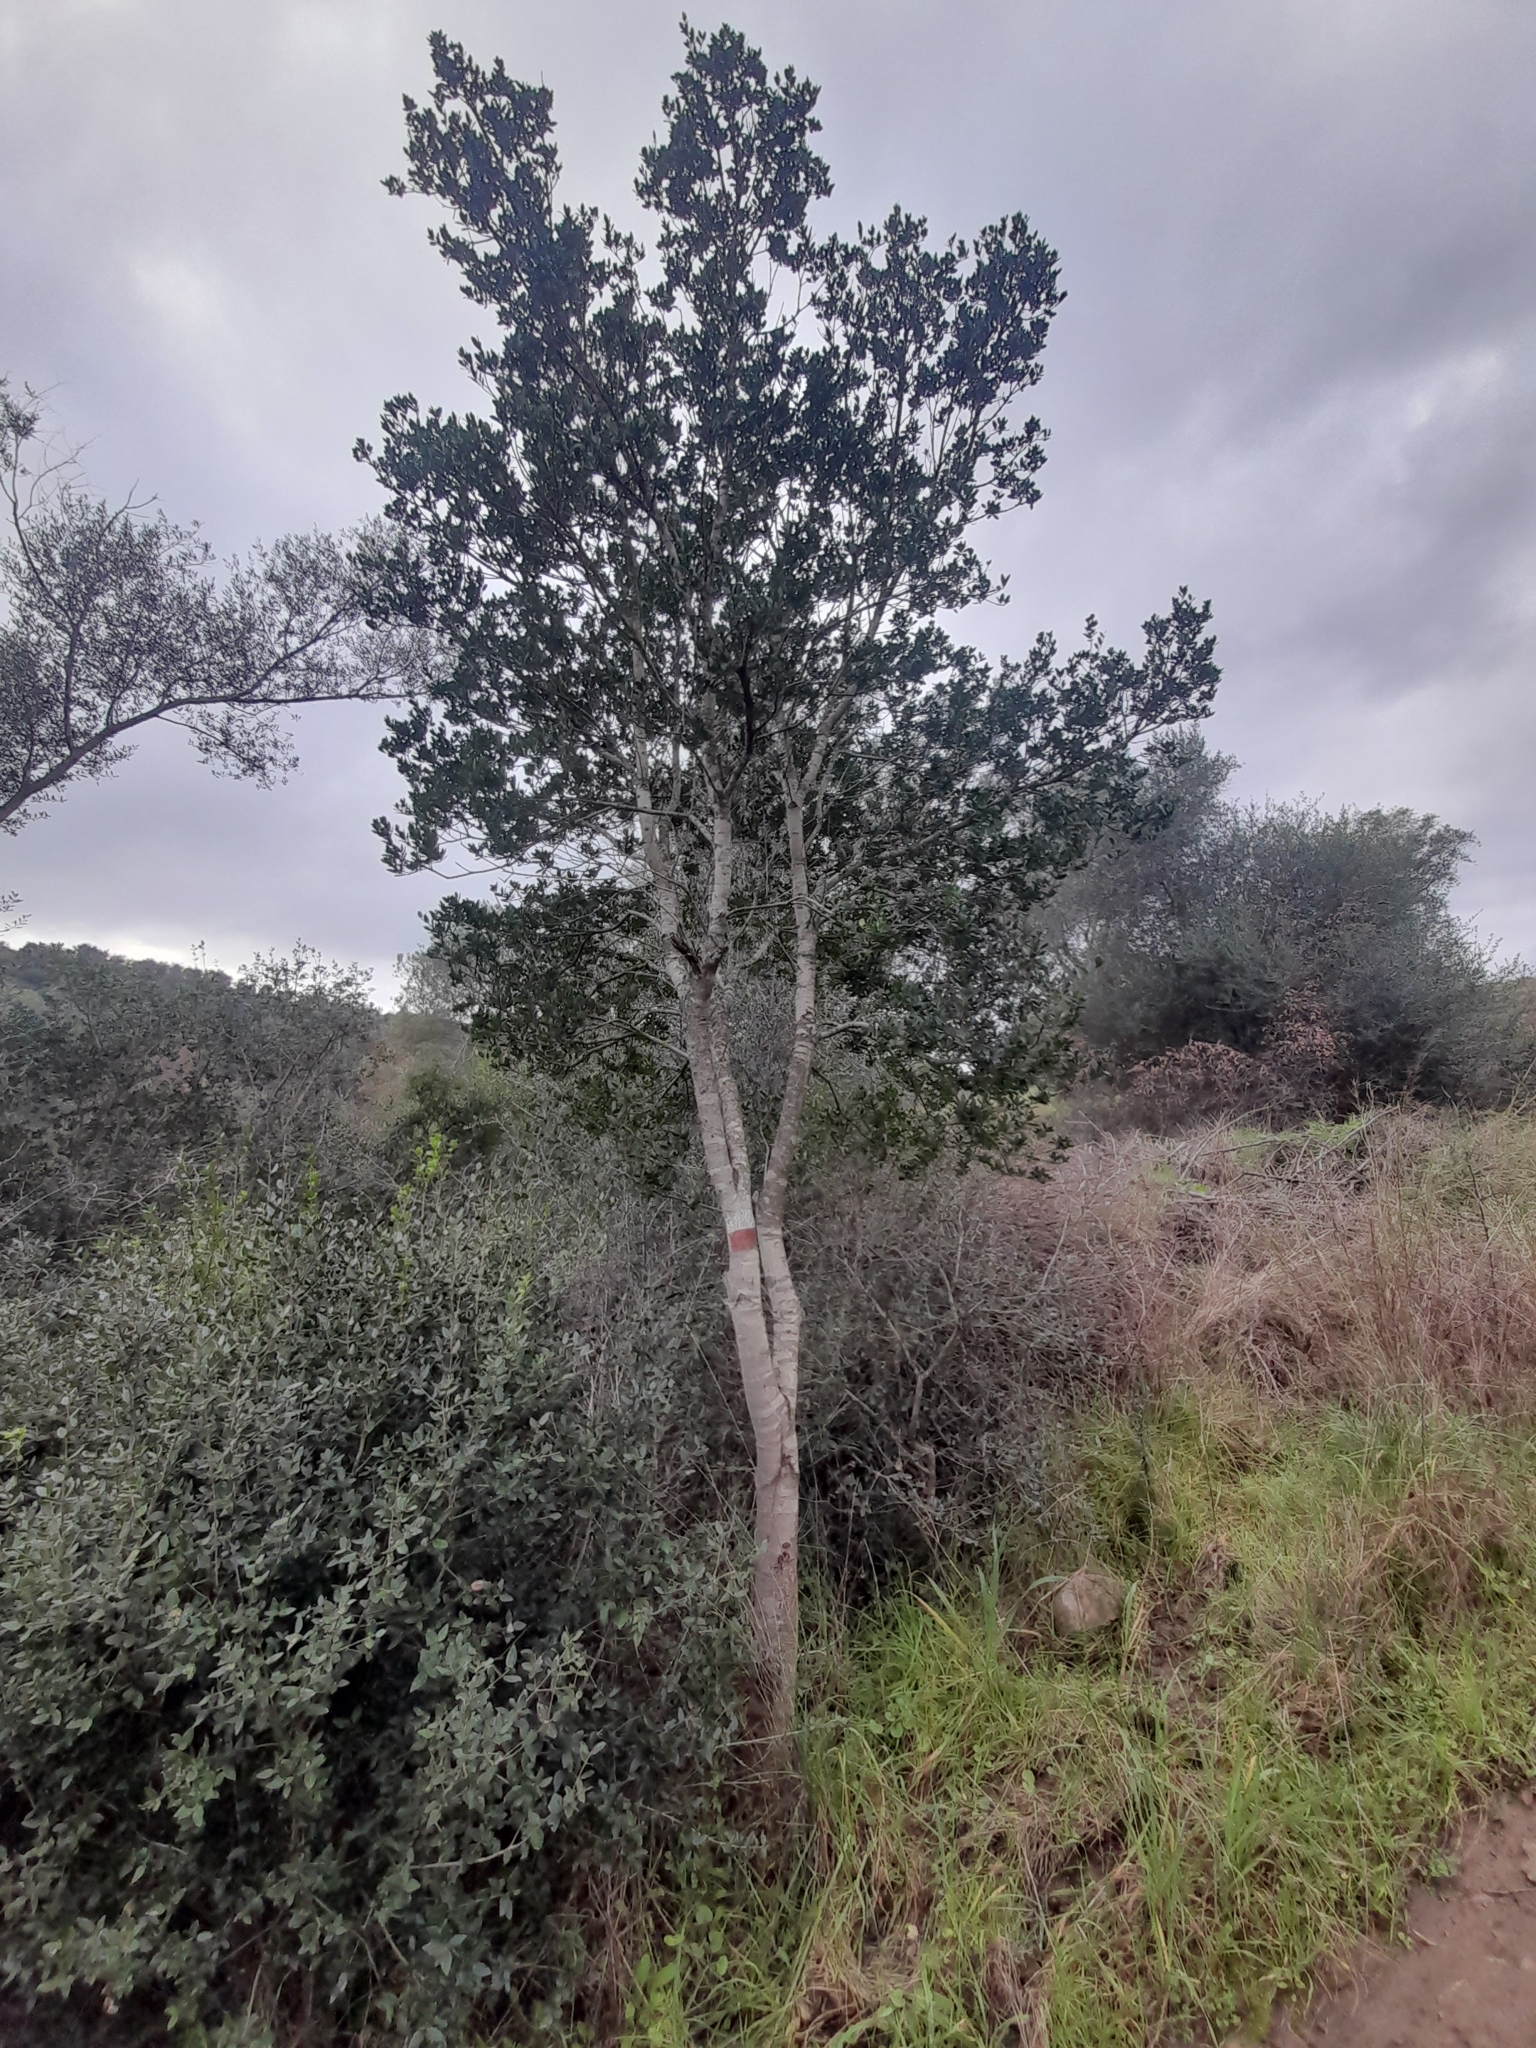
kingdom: Plantae
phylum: Tracheophyta
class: Magnoliopsida
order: Lamiales
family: Oleaceae
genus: Phillyrea
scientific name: Phillyrea latifolia
